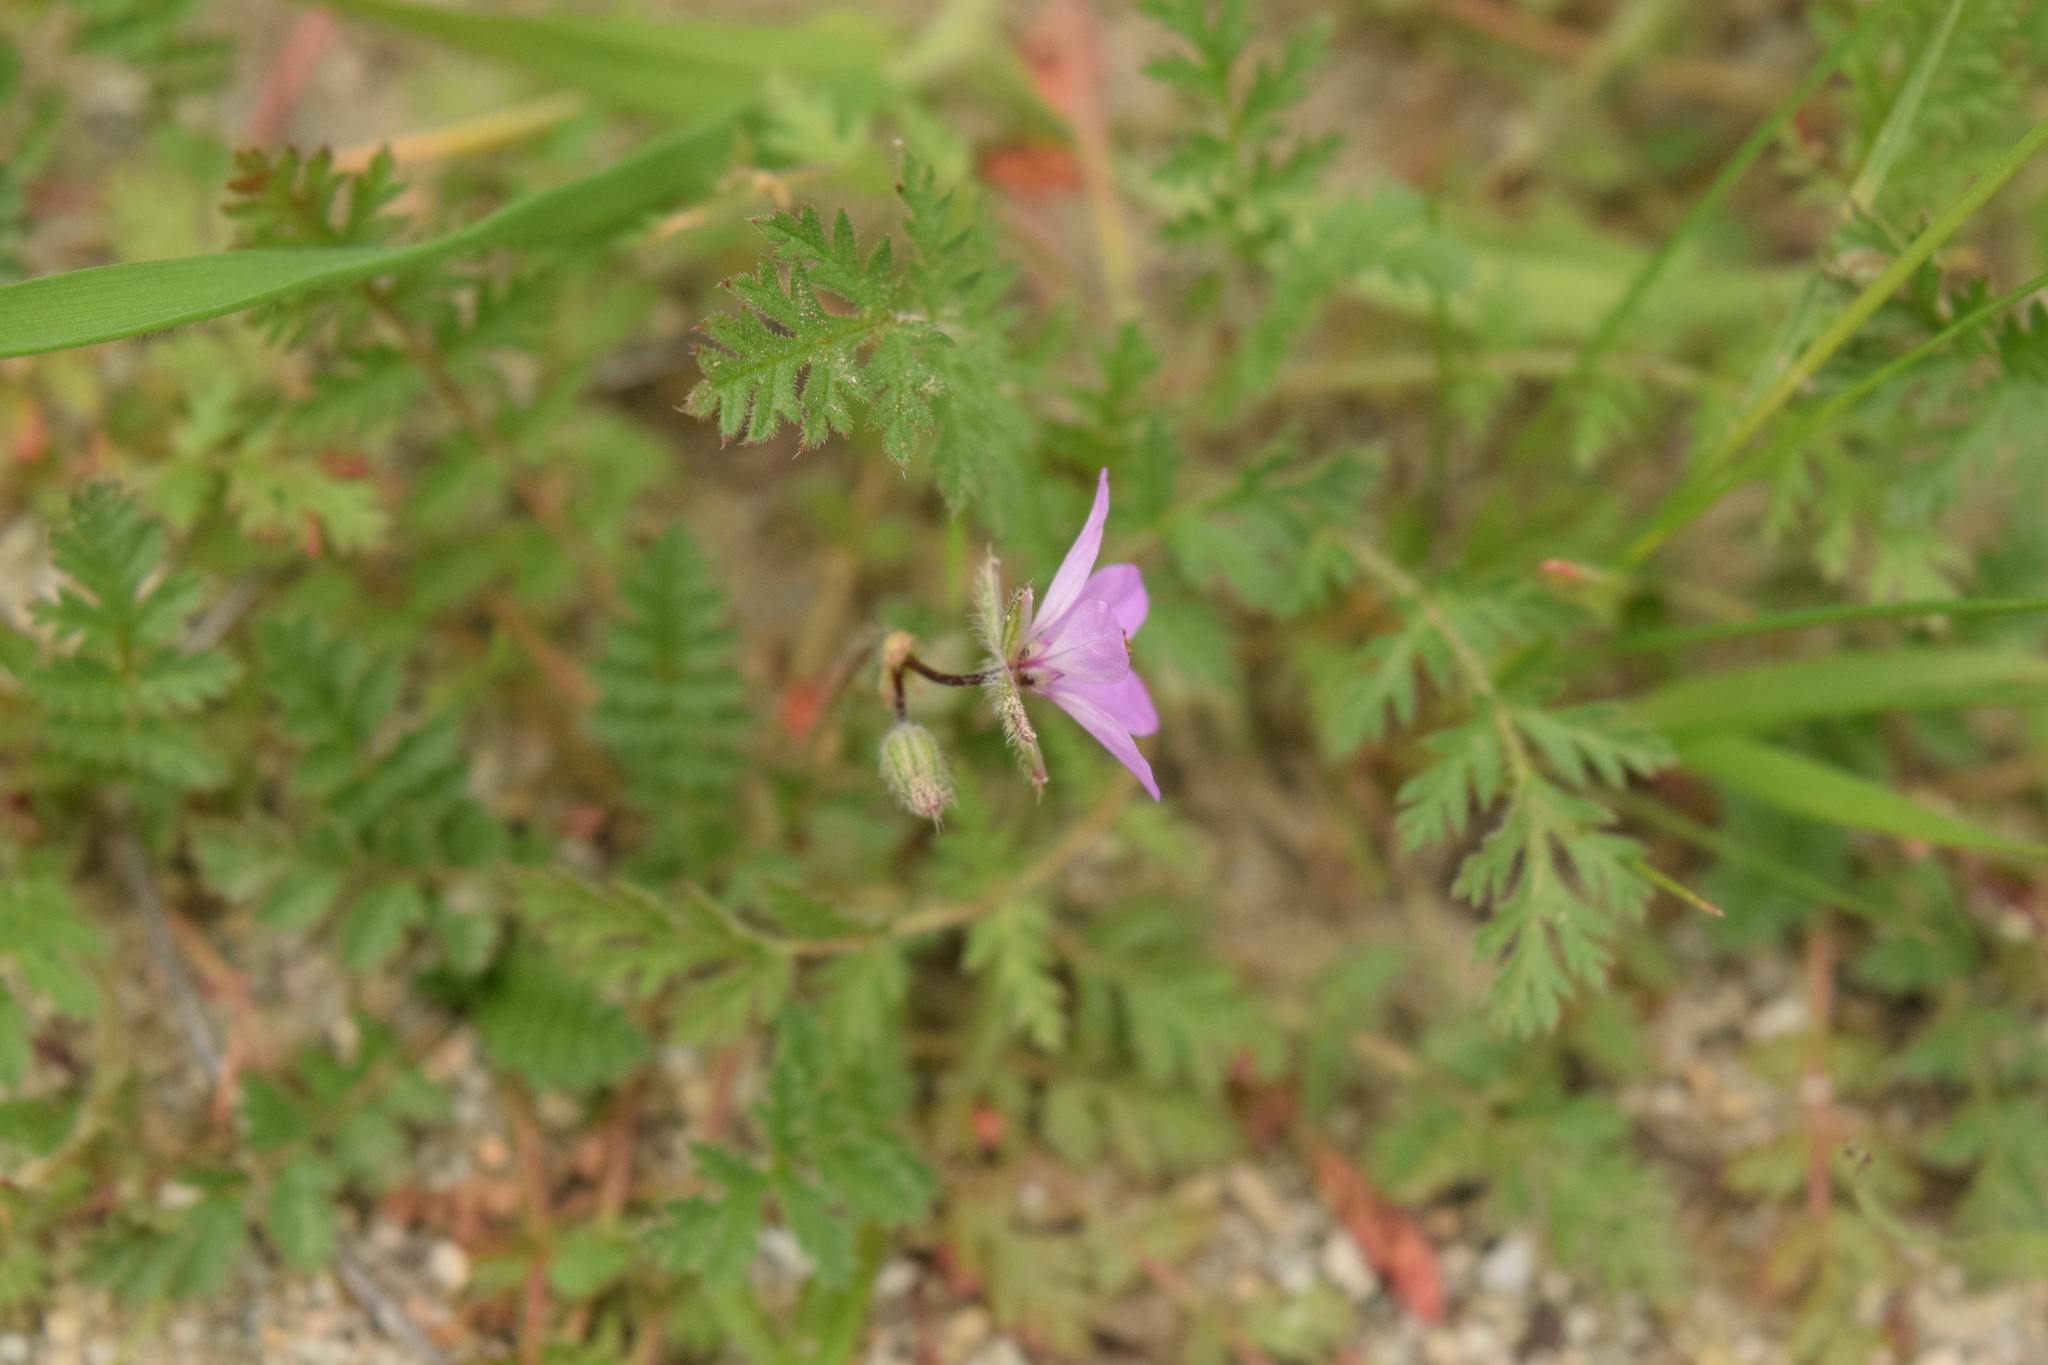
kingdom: Plantae
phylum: Tracheophyta
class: Magnoliopsida
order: Geraniales
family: Geraniaceae
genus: Erodium
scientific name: Erodium cicutarium
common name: Common stork's-bill
